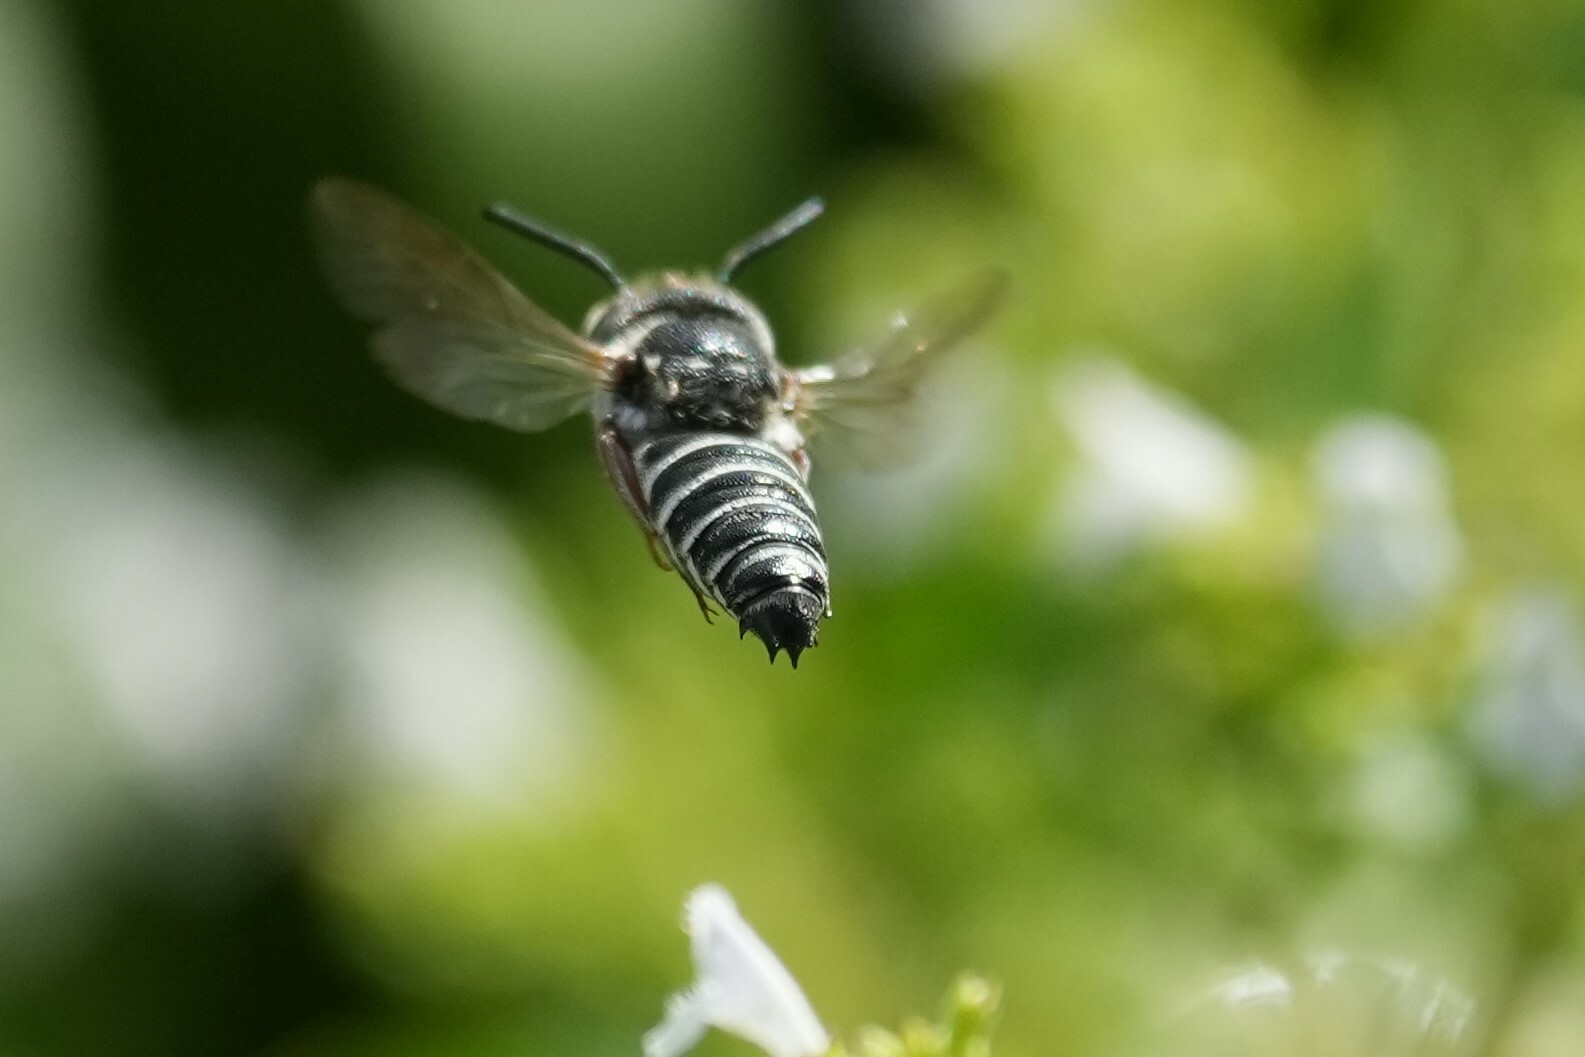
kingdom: Animalia
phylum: Arthropoda
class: Insecta
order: Hymenoptera
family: Megachilidae
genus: Coelioxys
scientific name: Coelioxys sayi
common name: Say's cuckoo leaf-cutter bee
